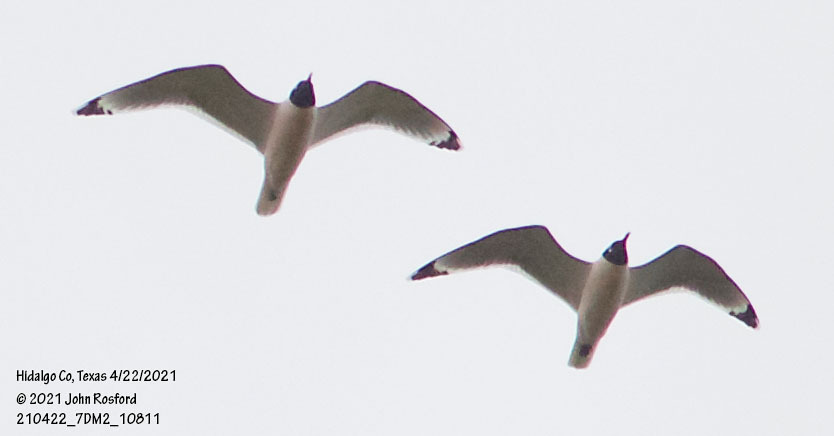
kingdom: Animalia
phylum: Chordata
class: Aves
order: Charadriiformes
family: Laridae
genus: Leucophaeus
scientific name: Leucophaeus pipixcan
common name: Franklin's gull
